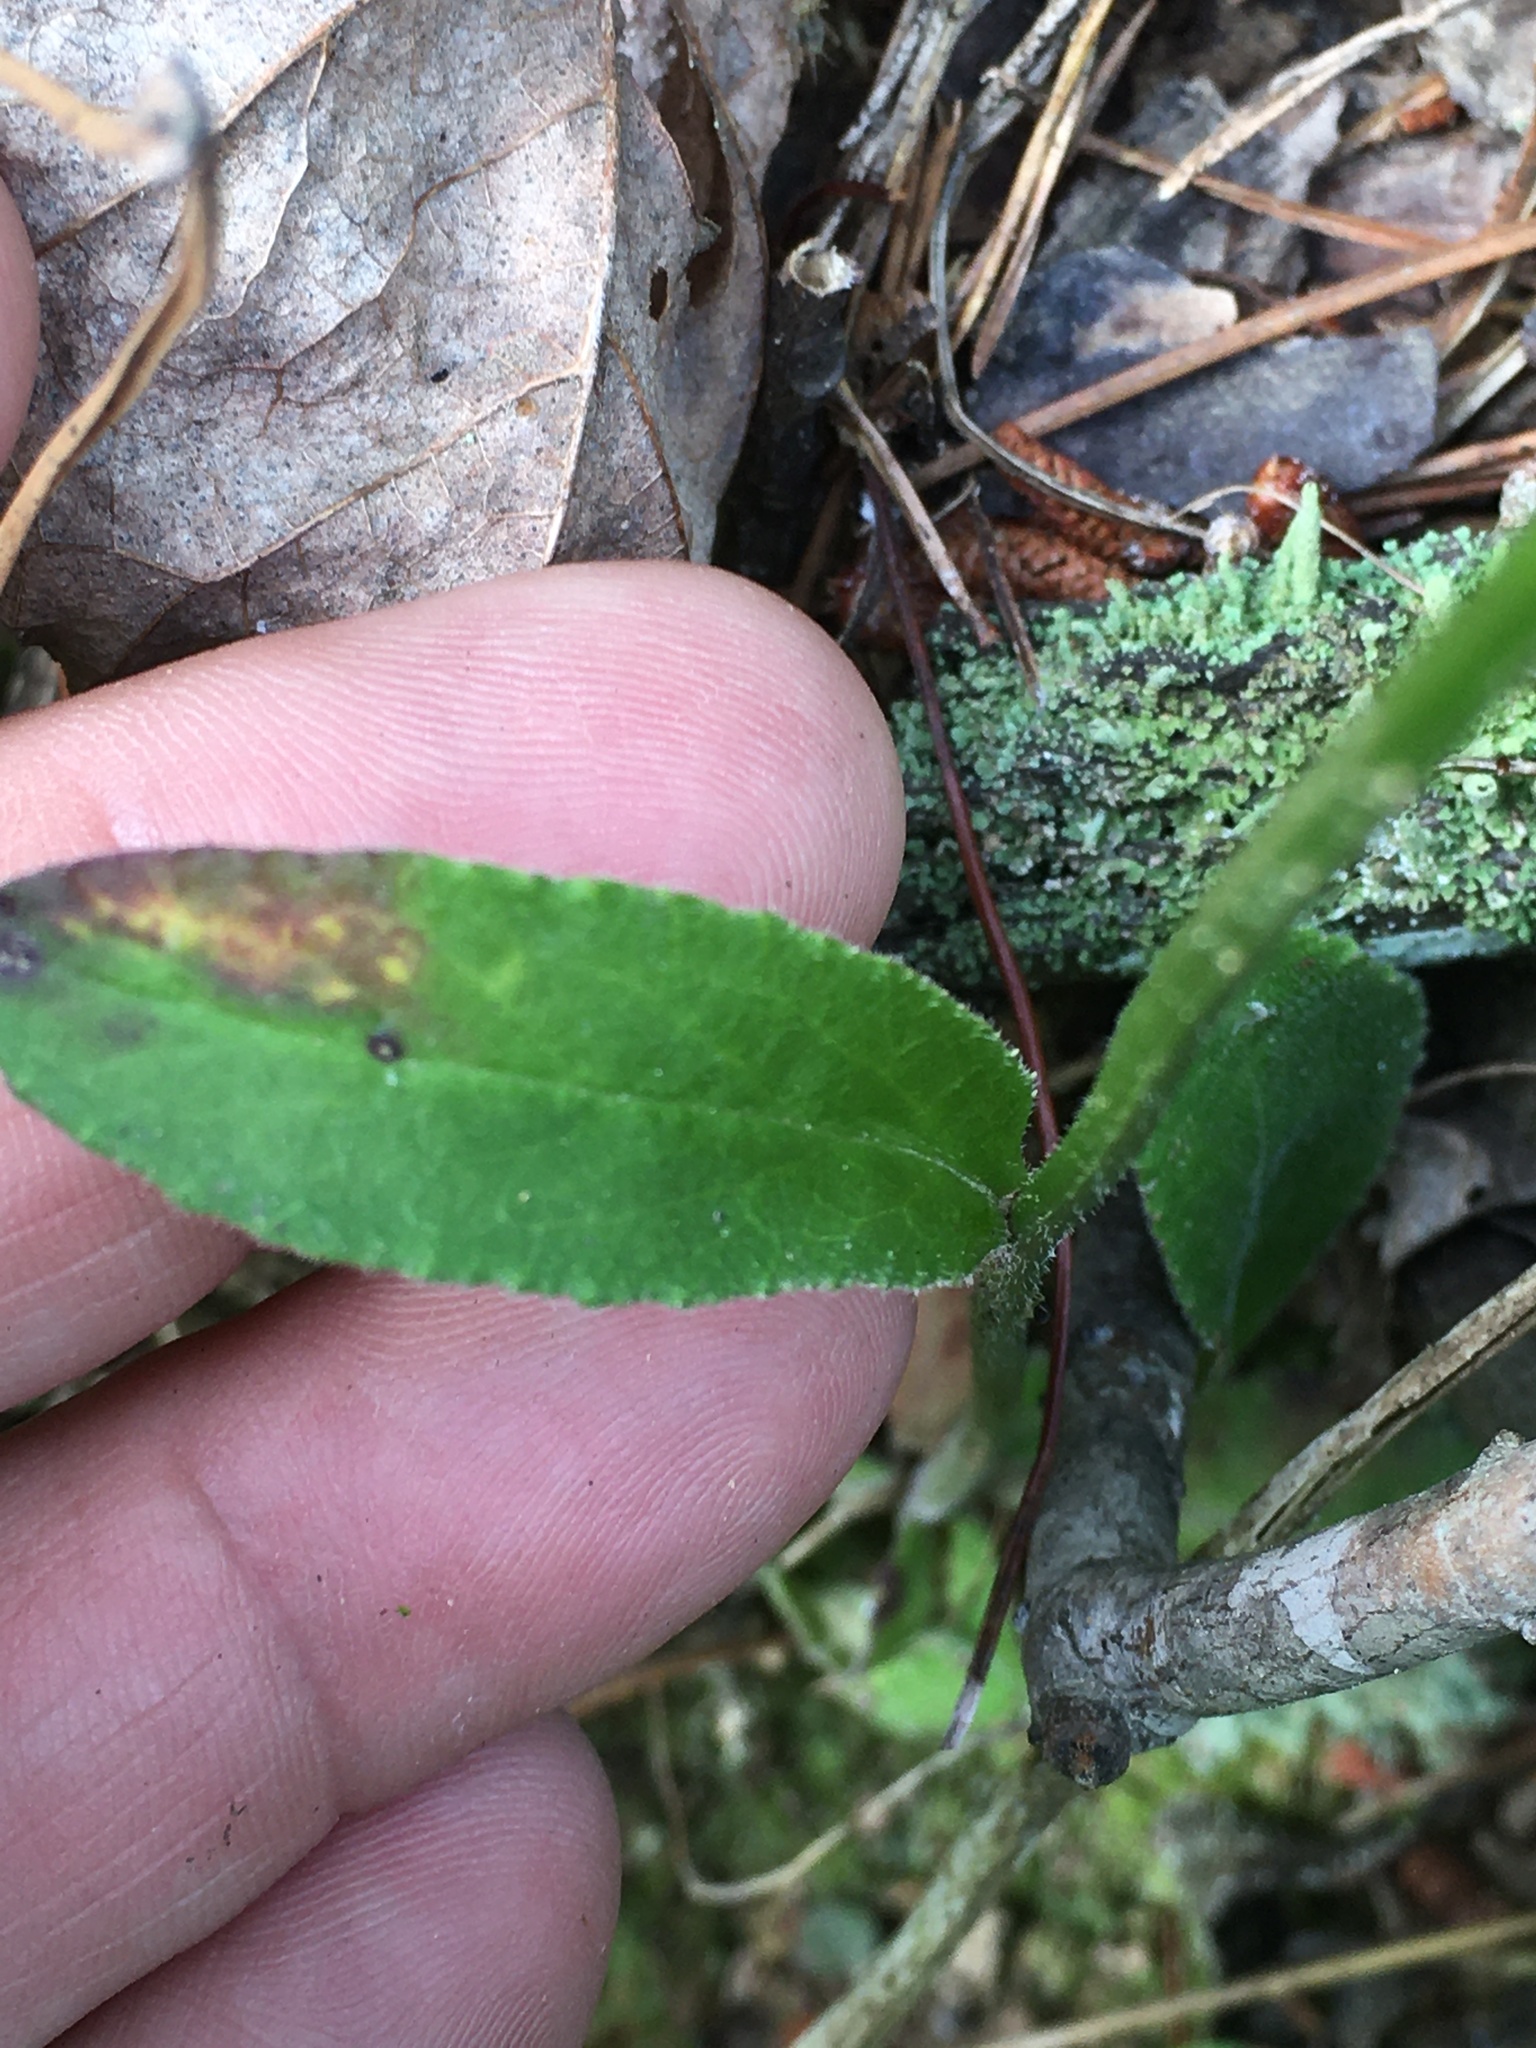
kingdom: Plantae
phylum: Tracheophyta
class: Magnoliopsida
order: Asterales
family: Campanulaceae
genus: Lobelia
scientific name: Lobelia spicata
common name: Pale-spike lobelia
